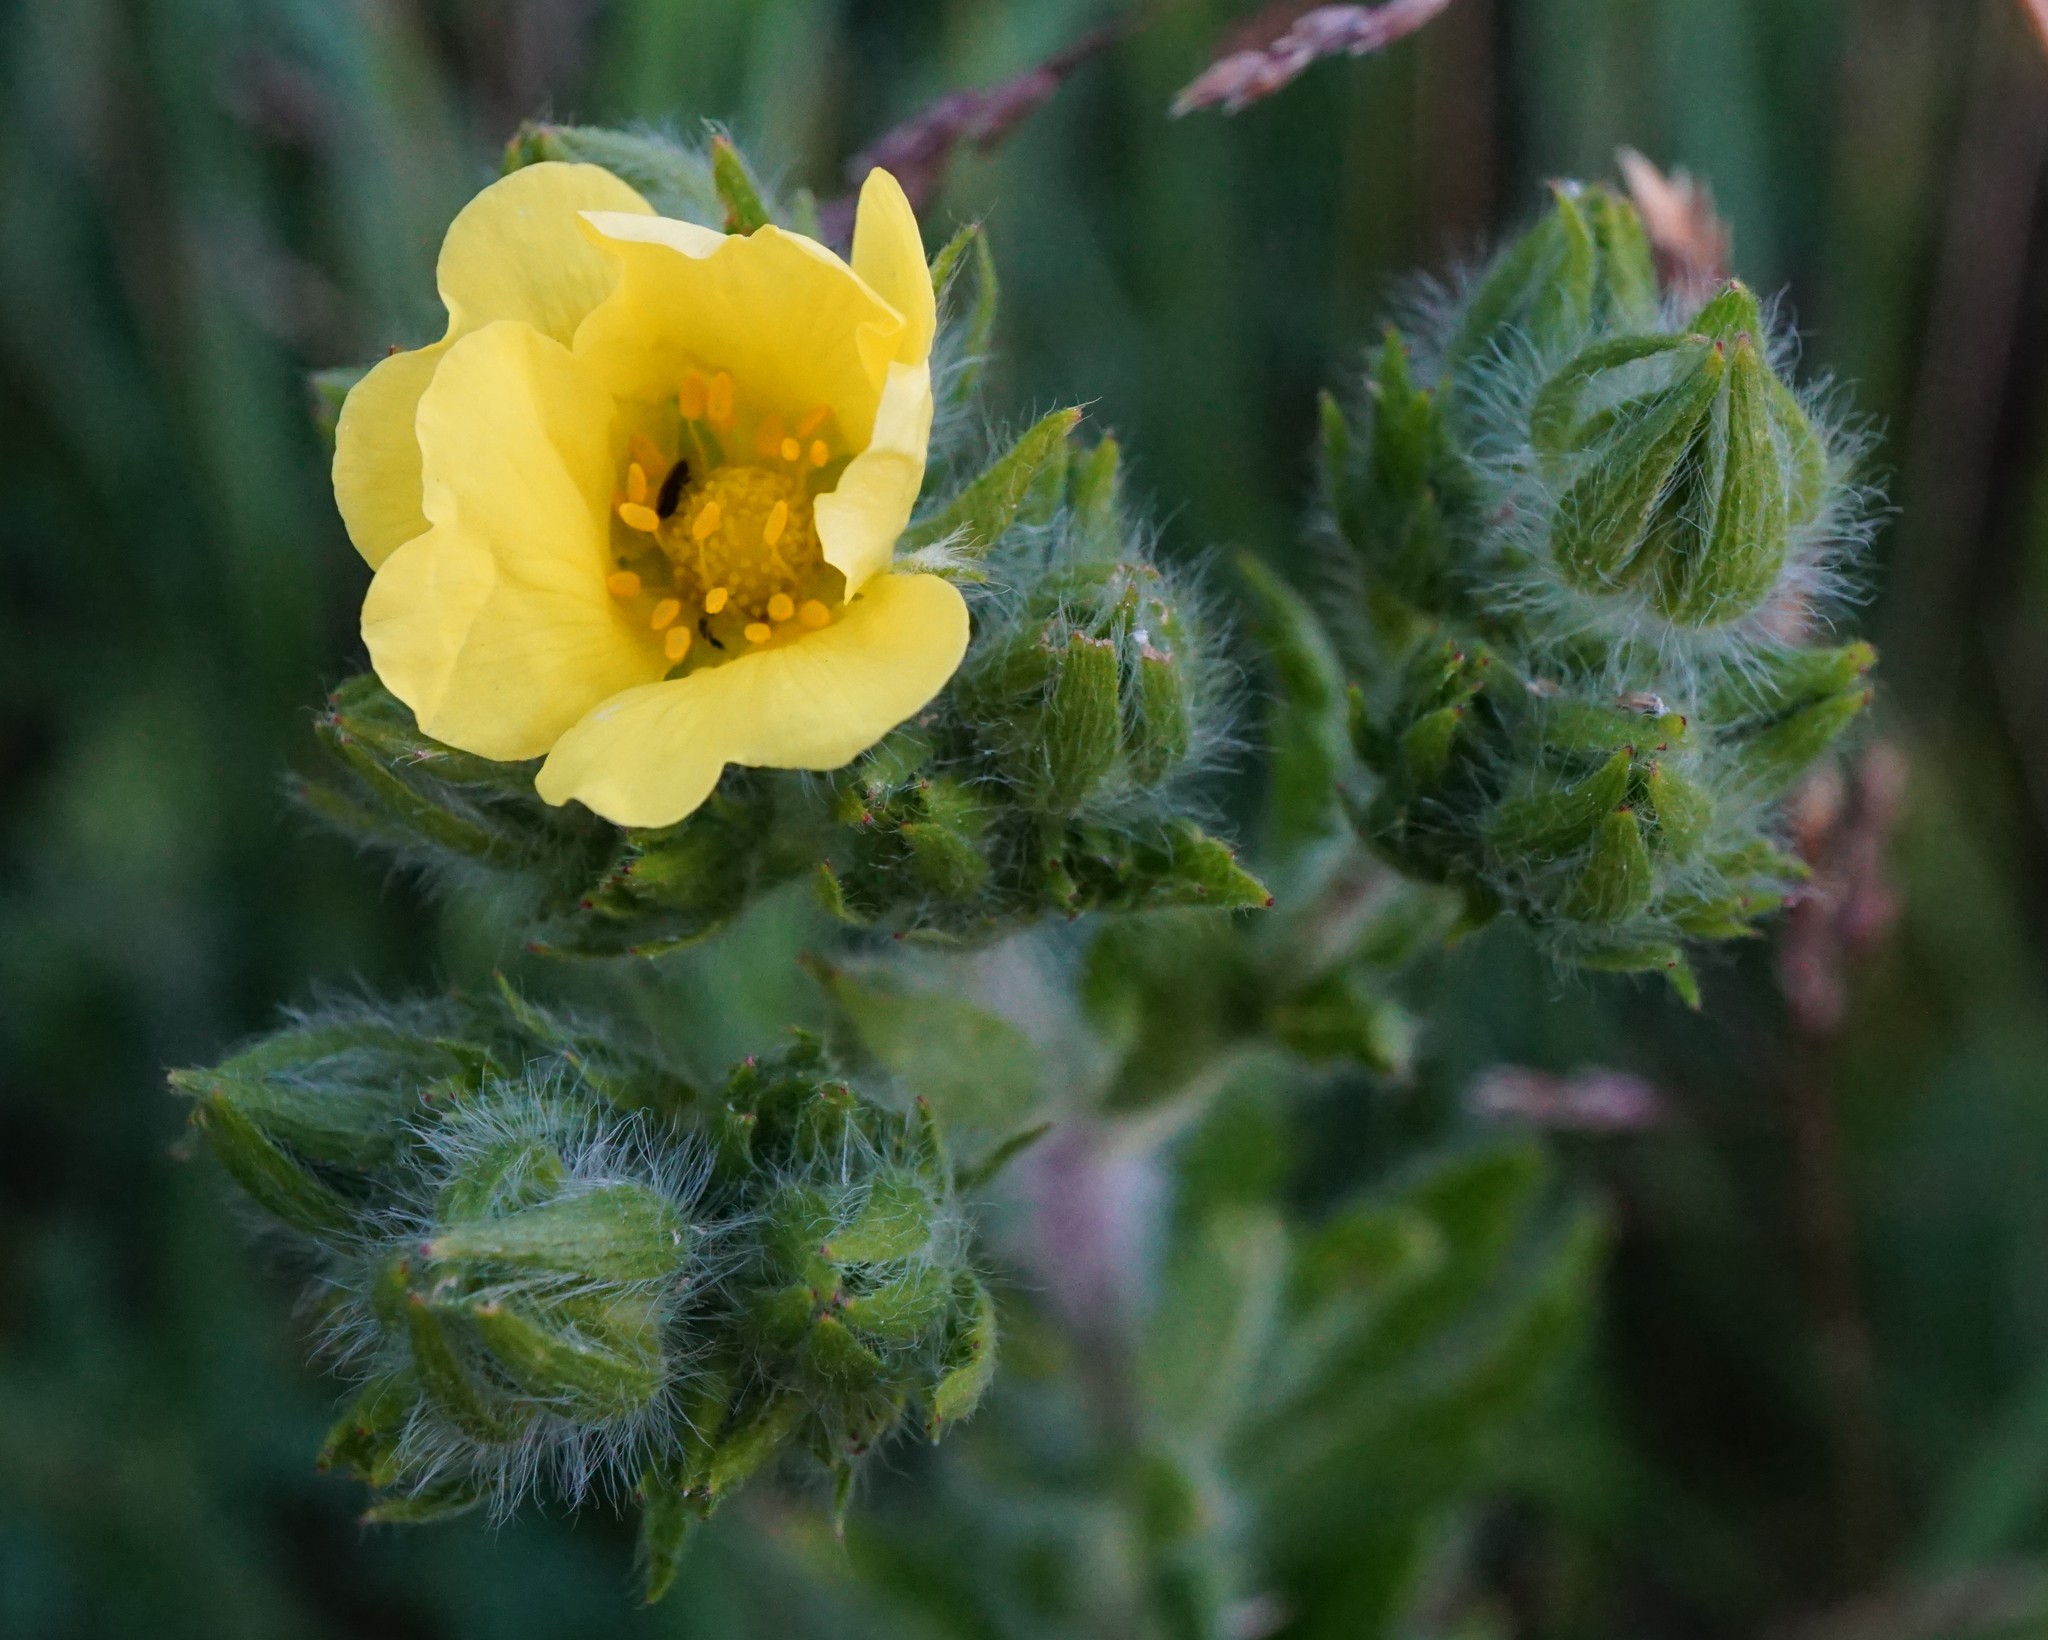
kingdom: Plantae
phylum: Tracheophyta
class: Magnoliopsida
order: Rosales
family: Rosaceae
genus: Potentilla
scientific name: Potentilla recta
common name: Sulphur cinquefoil
